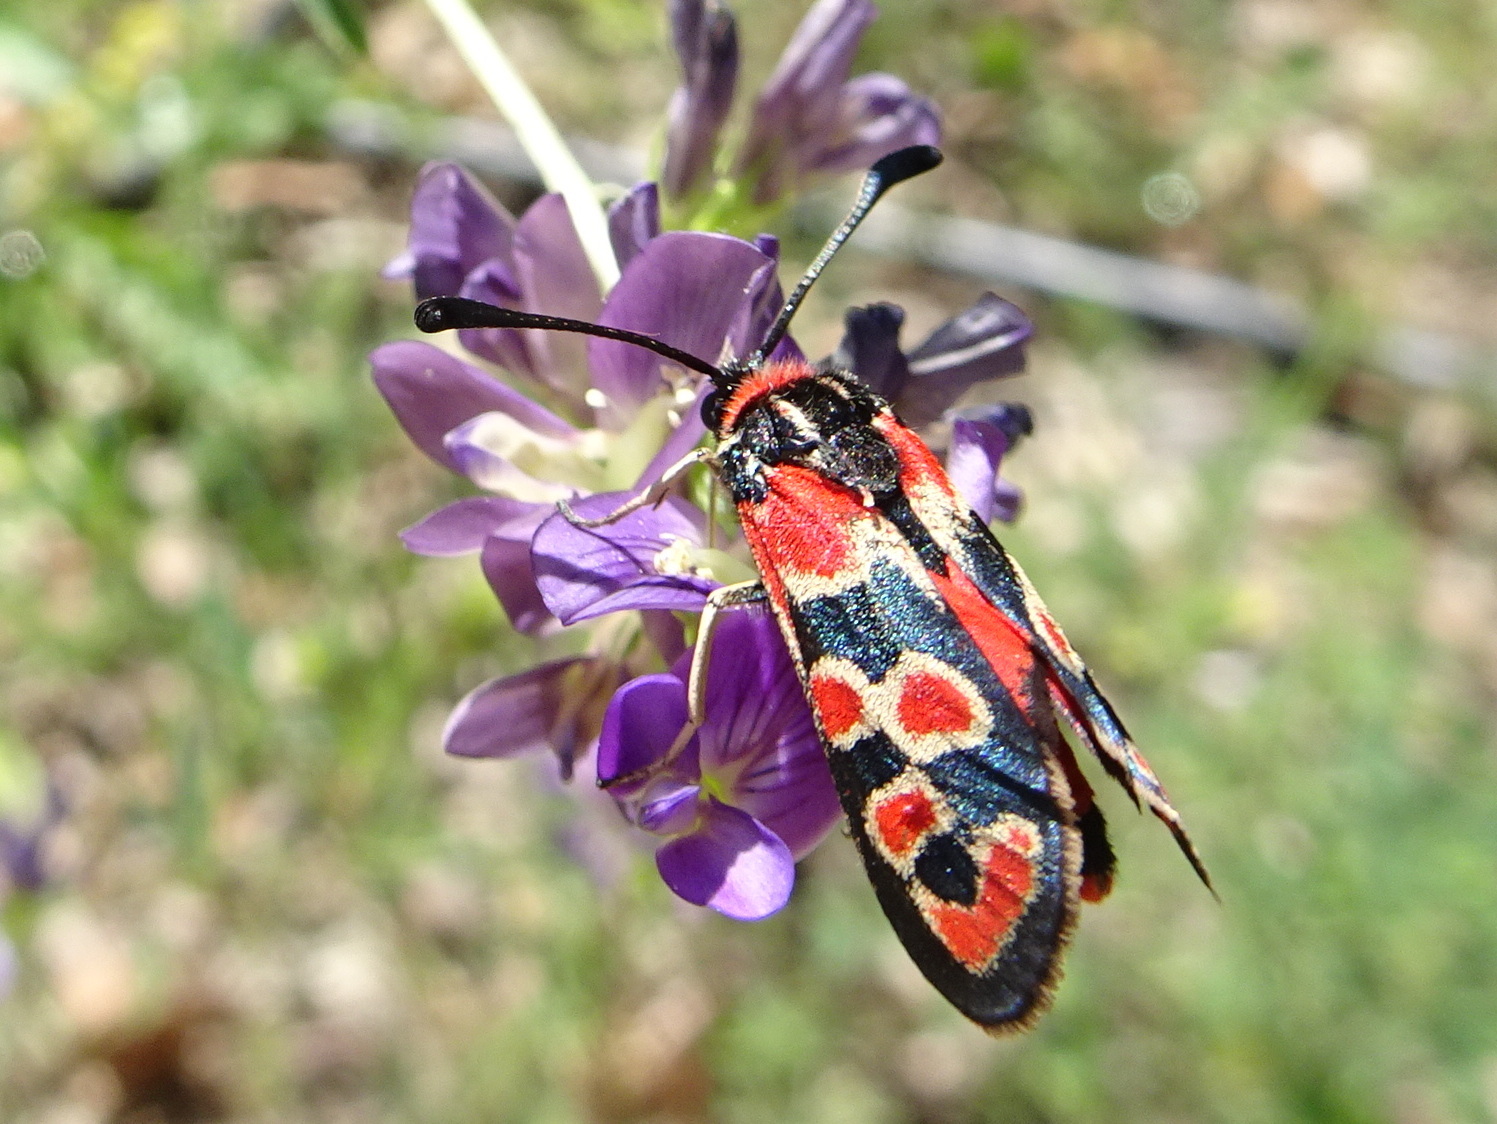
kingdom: Animalia
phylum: Arthropoda
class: Insecta
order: Lepidoptera
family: Zygaenidae
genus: Zygaena
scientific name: Zygaena fausta
